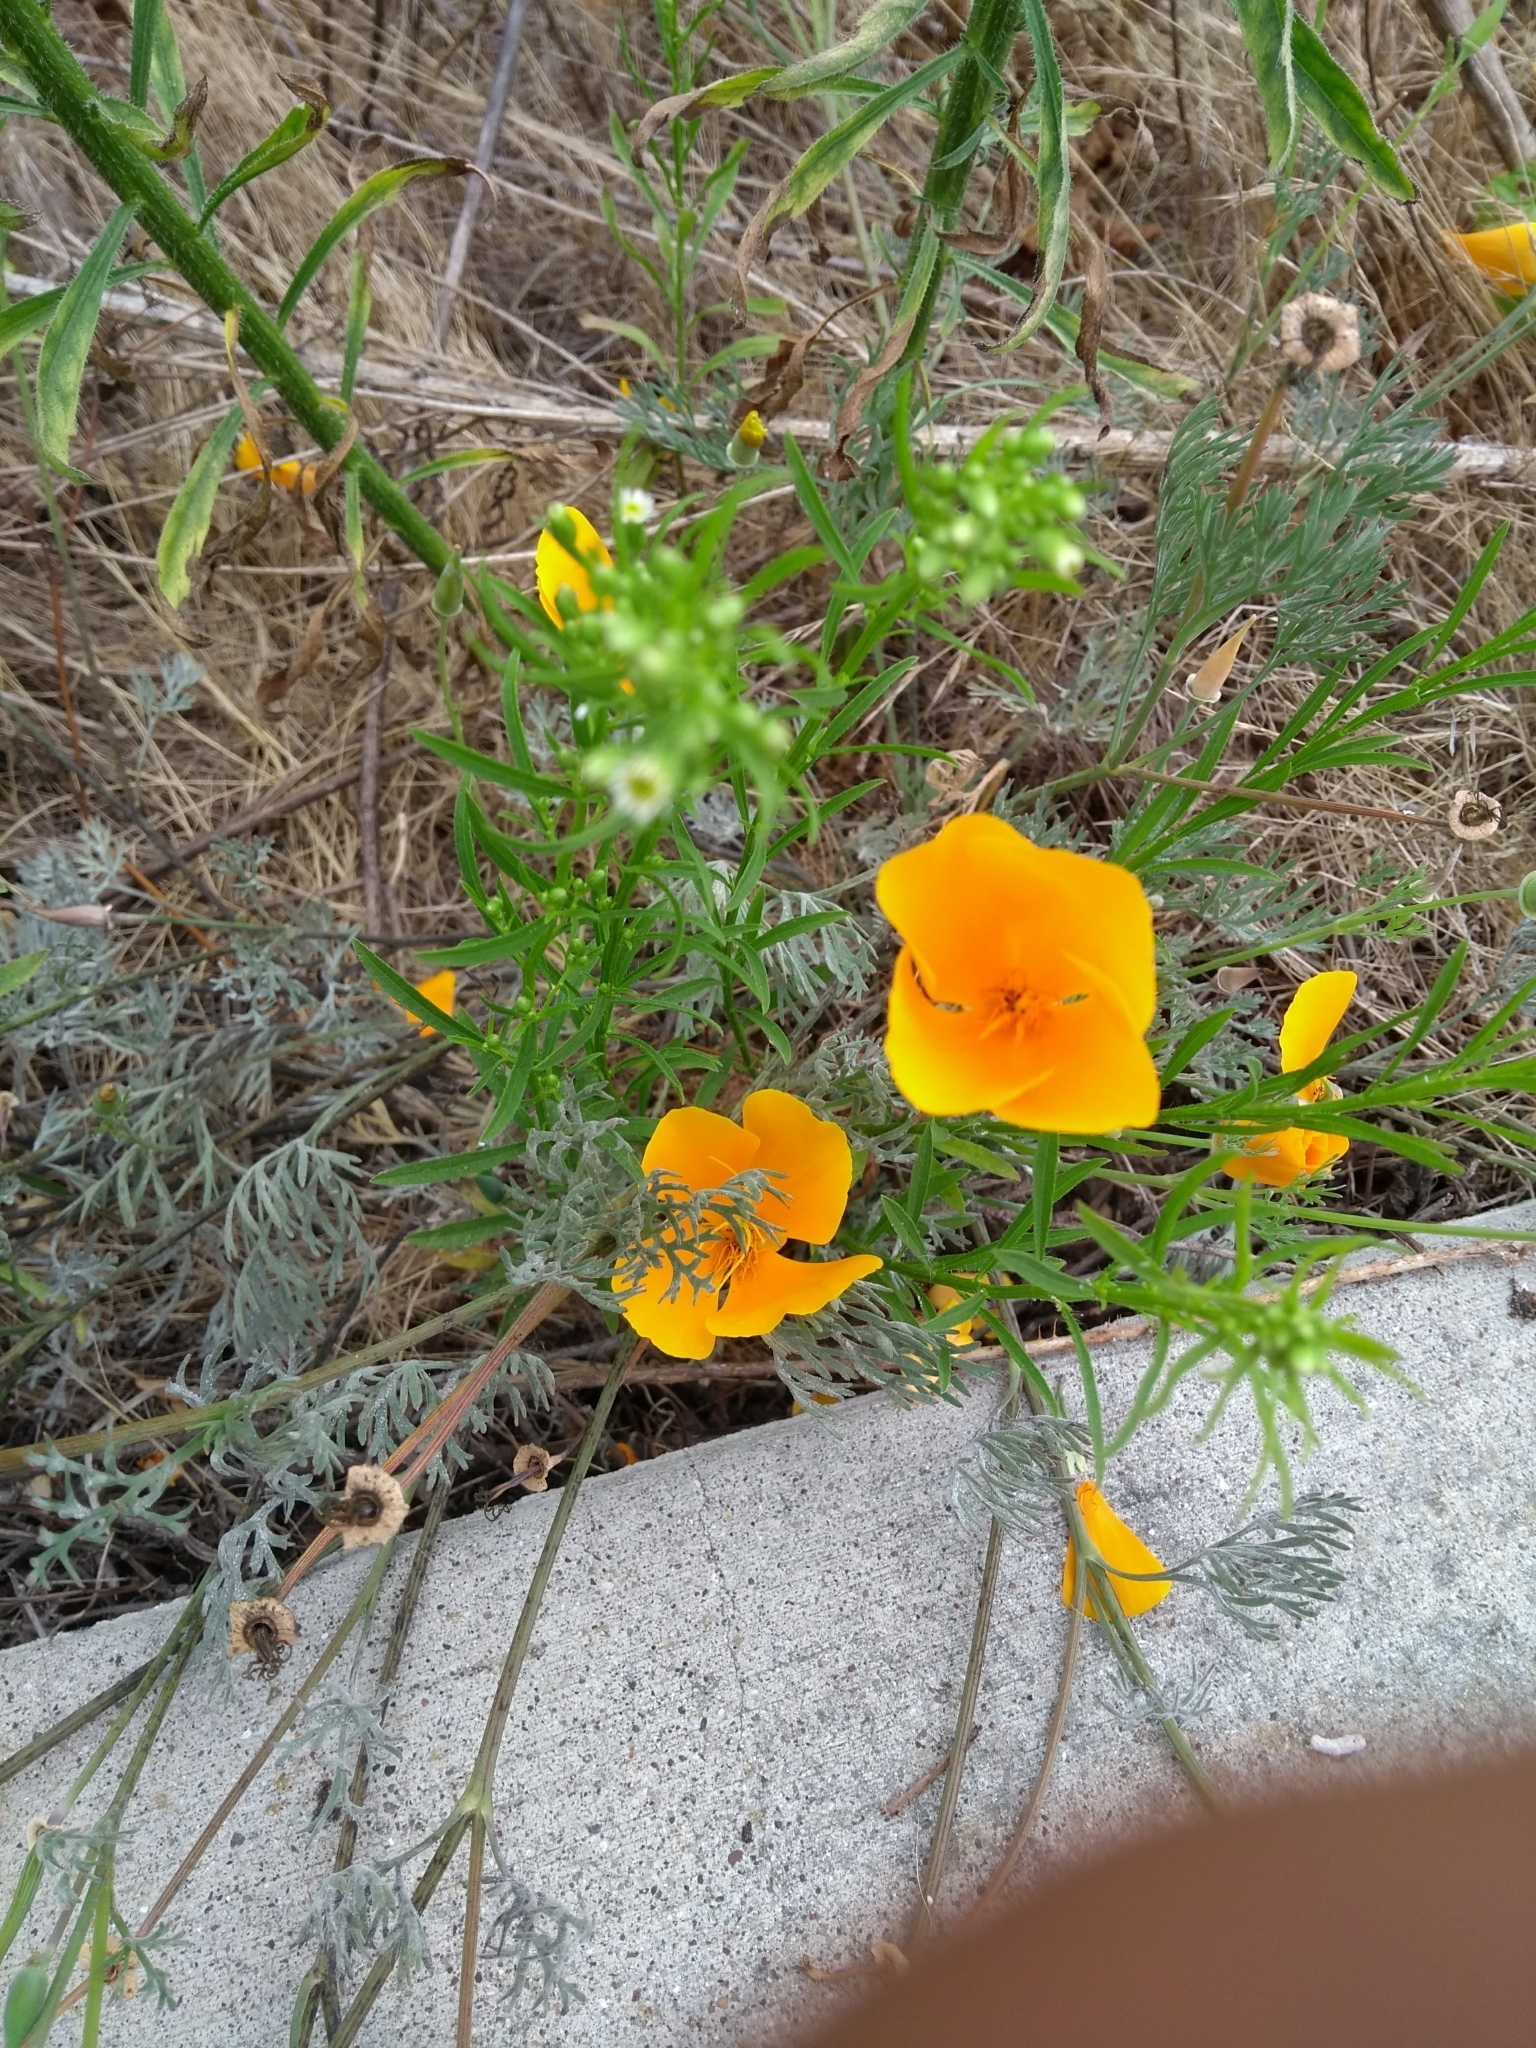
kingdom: Plantae
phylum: Tracheophyta
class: Magnoliopsida
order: Ranunculales
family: Papaveraceae
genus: Eschscholzia
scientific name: Eschscholzia californica
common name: California poppy
